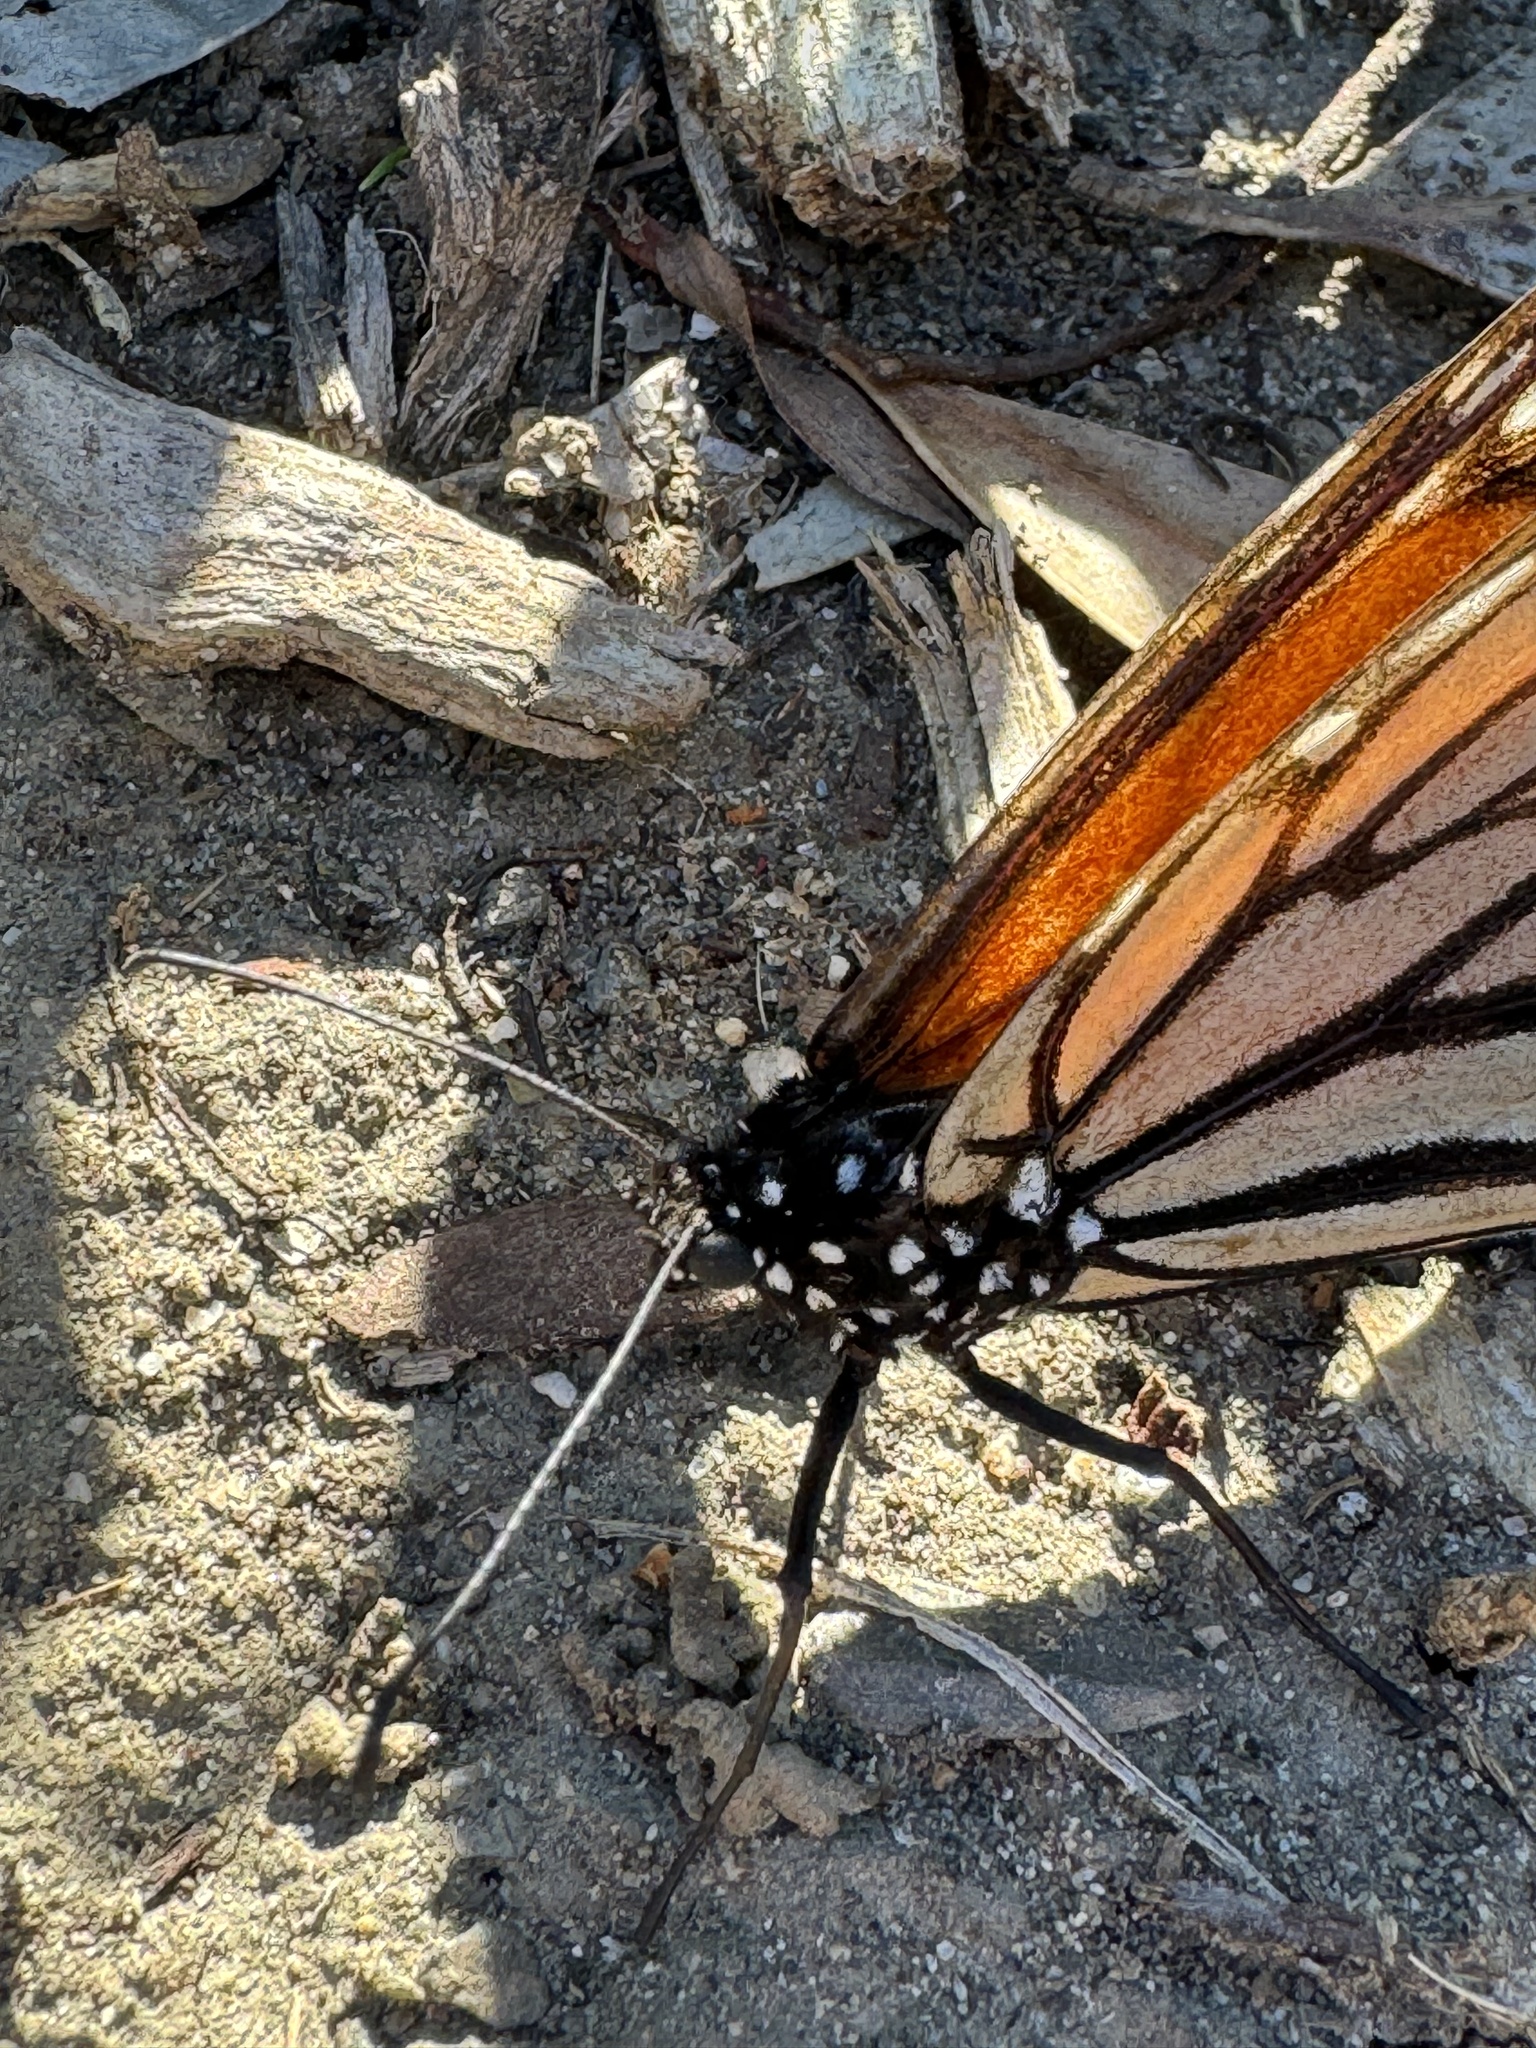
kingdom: Animalia
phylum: Arthropoda
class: Insecta
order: Lepidoptera
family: Nymphalidae
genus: Danaus
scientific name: Danaus plexippus
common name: Monarch
